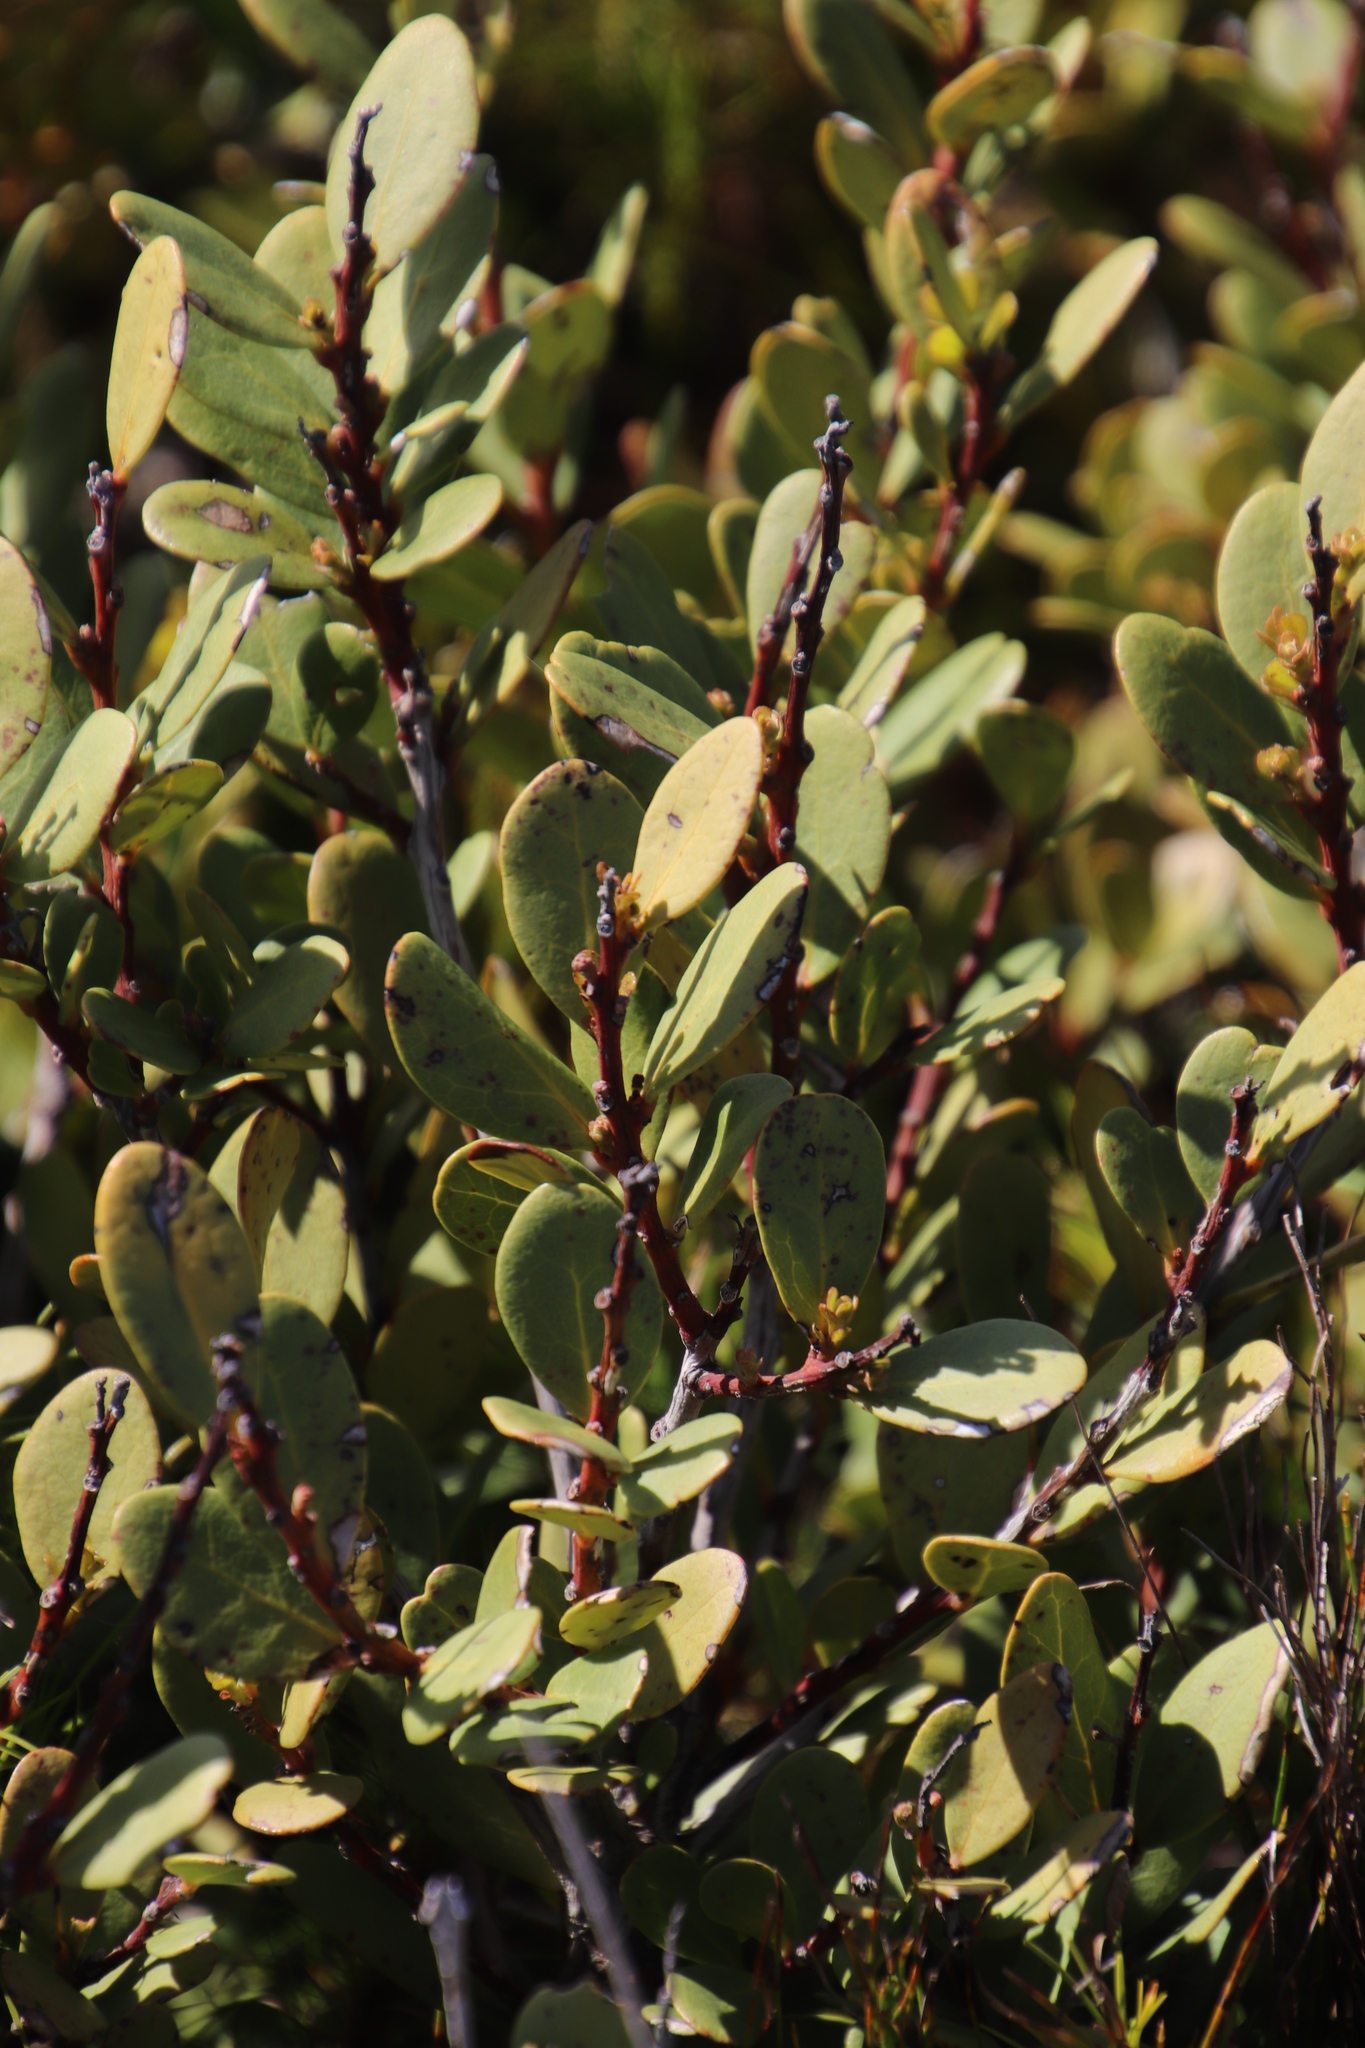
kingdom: Plantae
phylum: Tracheophyta
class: Magnoliopsida
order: Ericales
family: Ebenaceae
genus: Euclea
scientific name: Euclea racemosa
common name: Dune guarri
